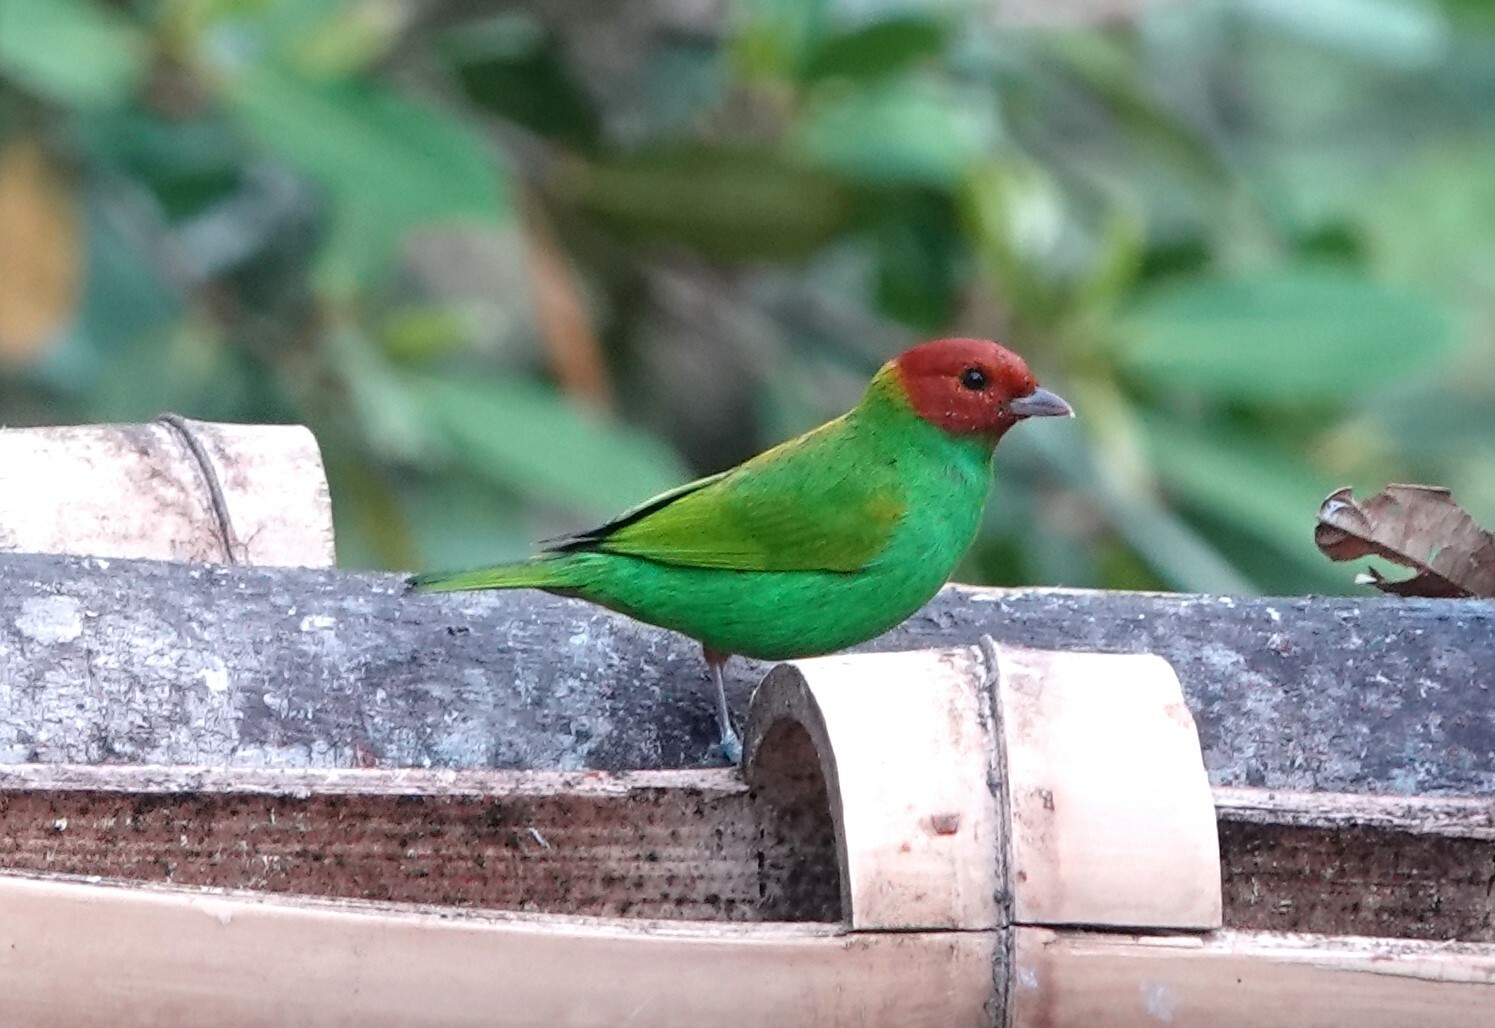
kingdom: Animalia
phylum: Chordata
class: Aves
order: Passeriformes
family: Thraupidae
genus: Tangara
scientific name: Tangara gyrola
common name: Bay-headed tanager
